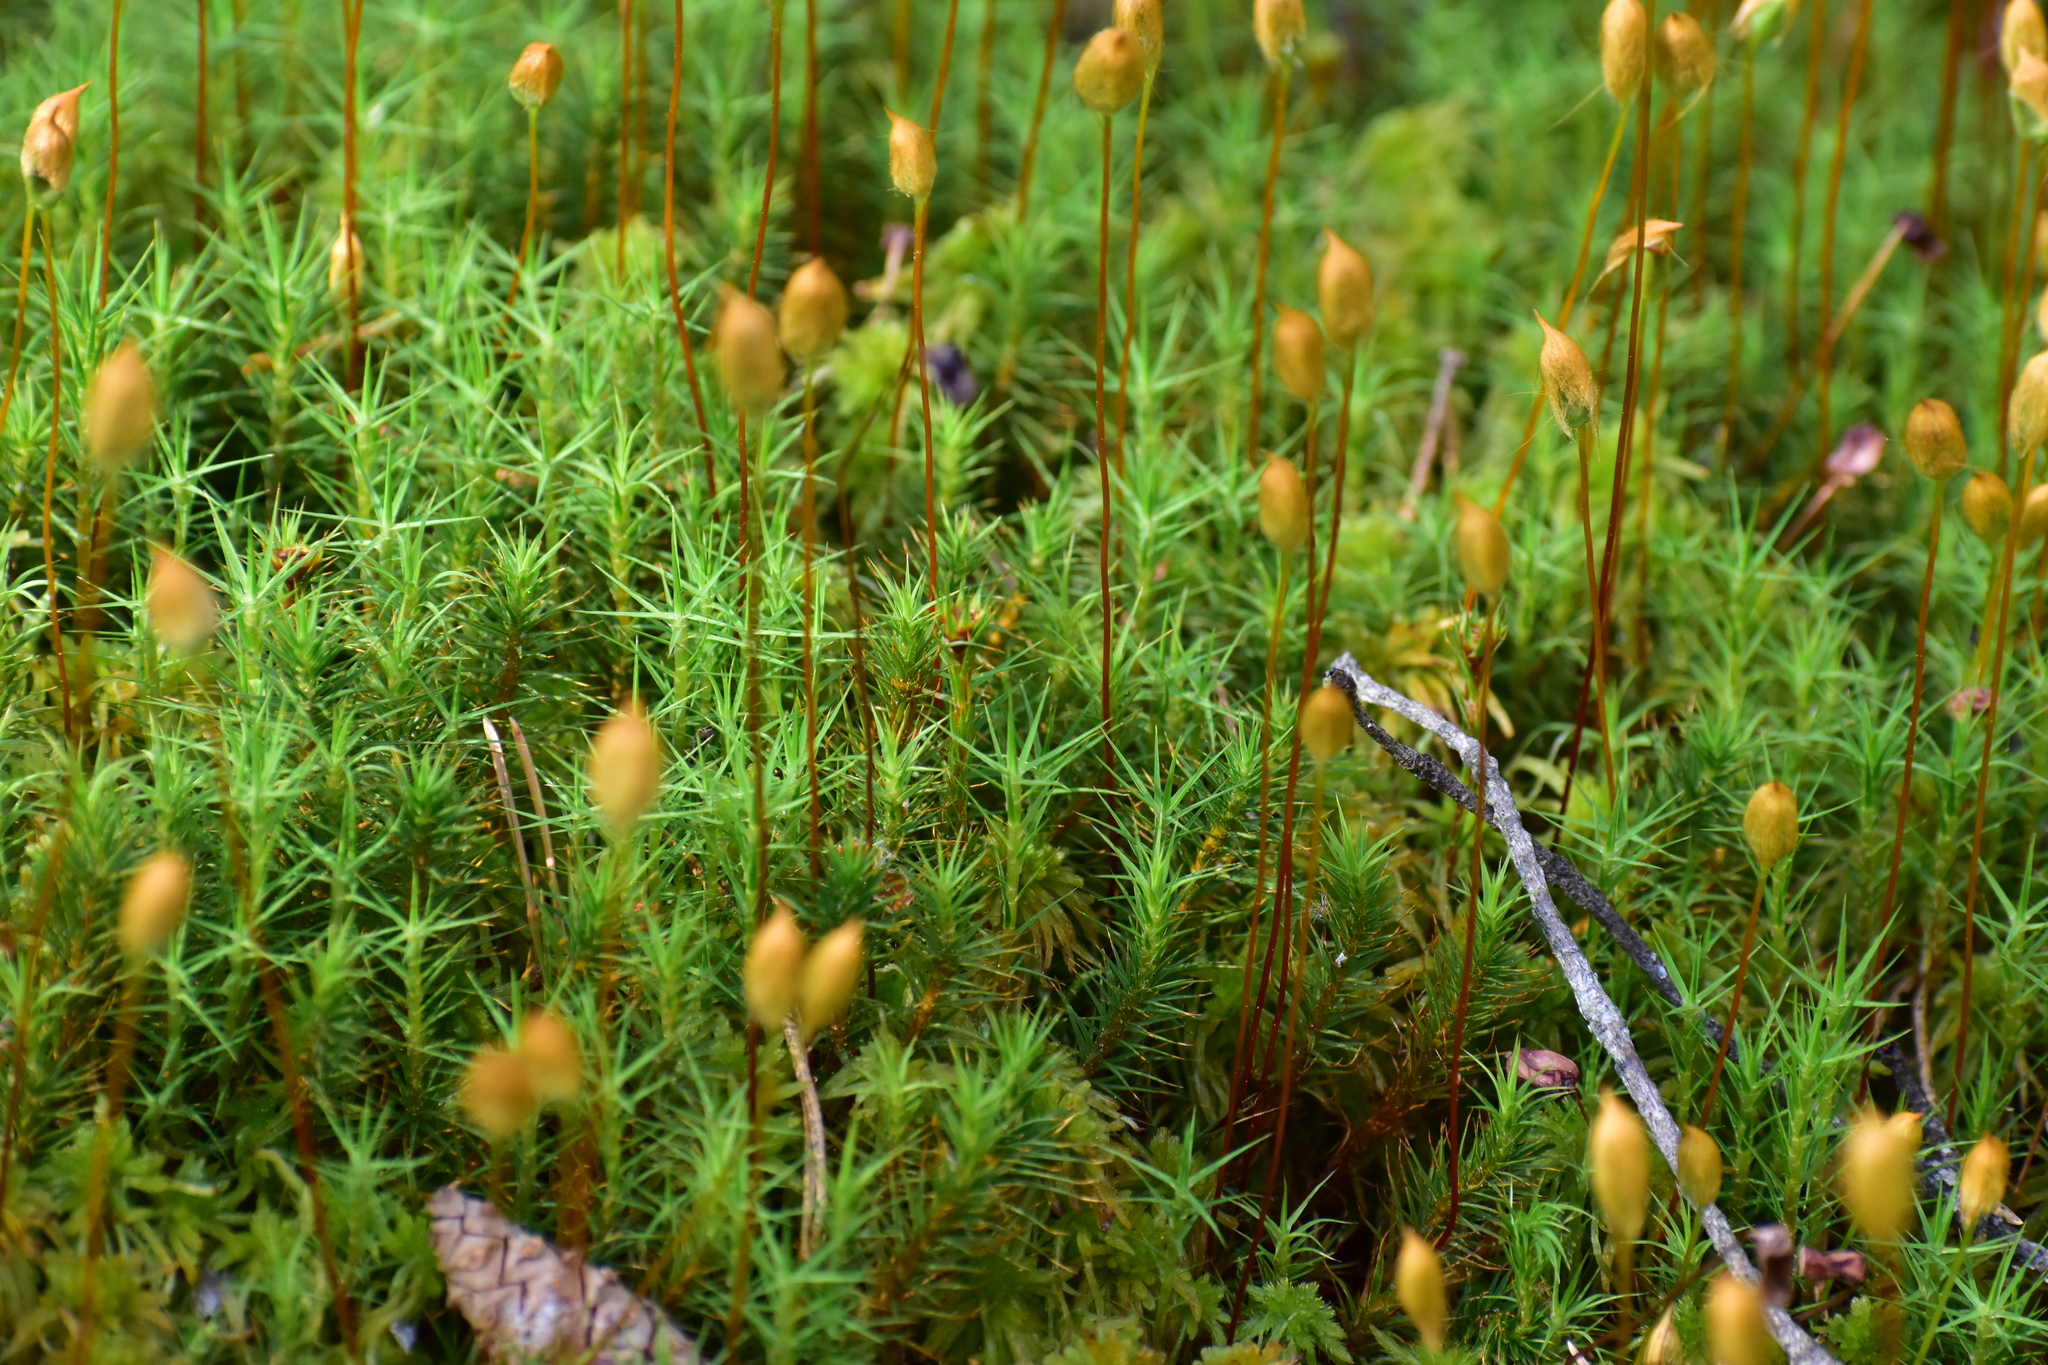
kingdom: Plantae
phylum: Bryophyta
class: Polytrichopsida
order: Polytrichales
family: Polytrichaceae
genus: Polytrichum
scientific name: Polytrichum commune
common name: Common haircap
